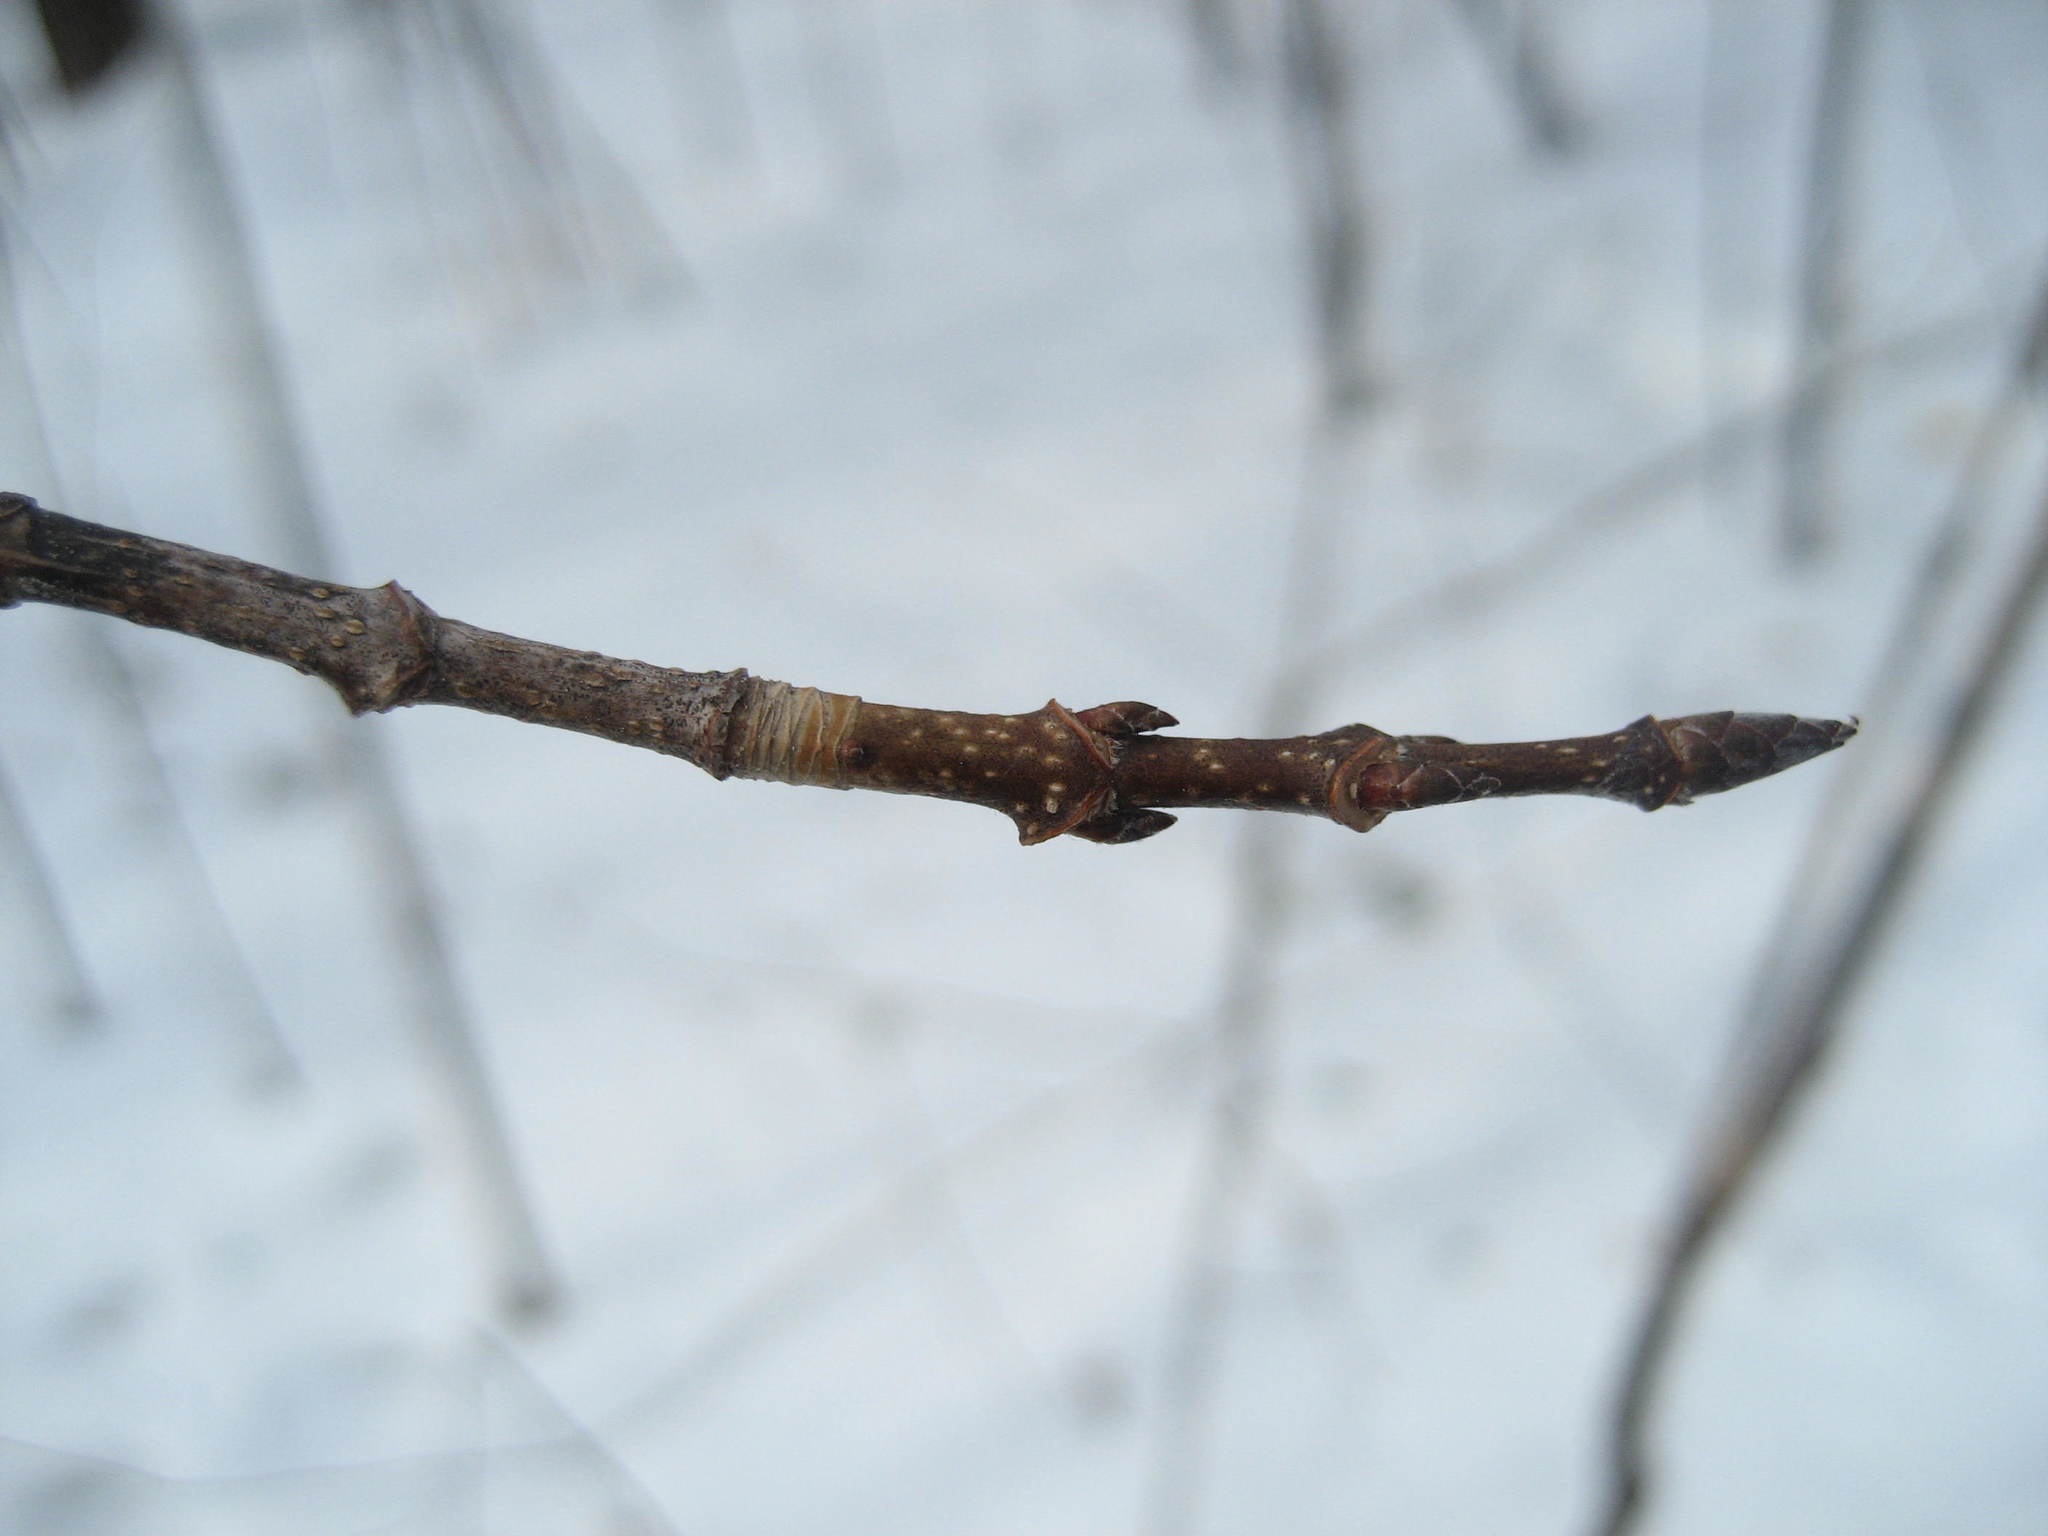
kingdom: Plantae
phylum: Tracheophyta
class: Magnoliopsida
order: Sapindales
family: Sapindaceae
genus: Acer
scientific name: Acer saccharum
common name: Sugar maple
